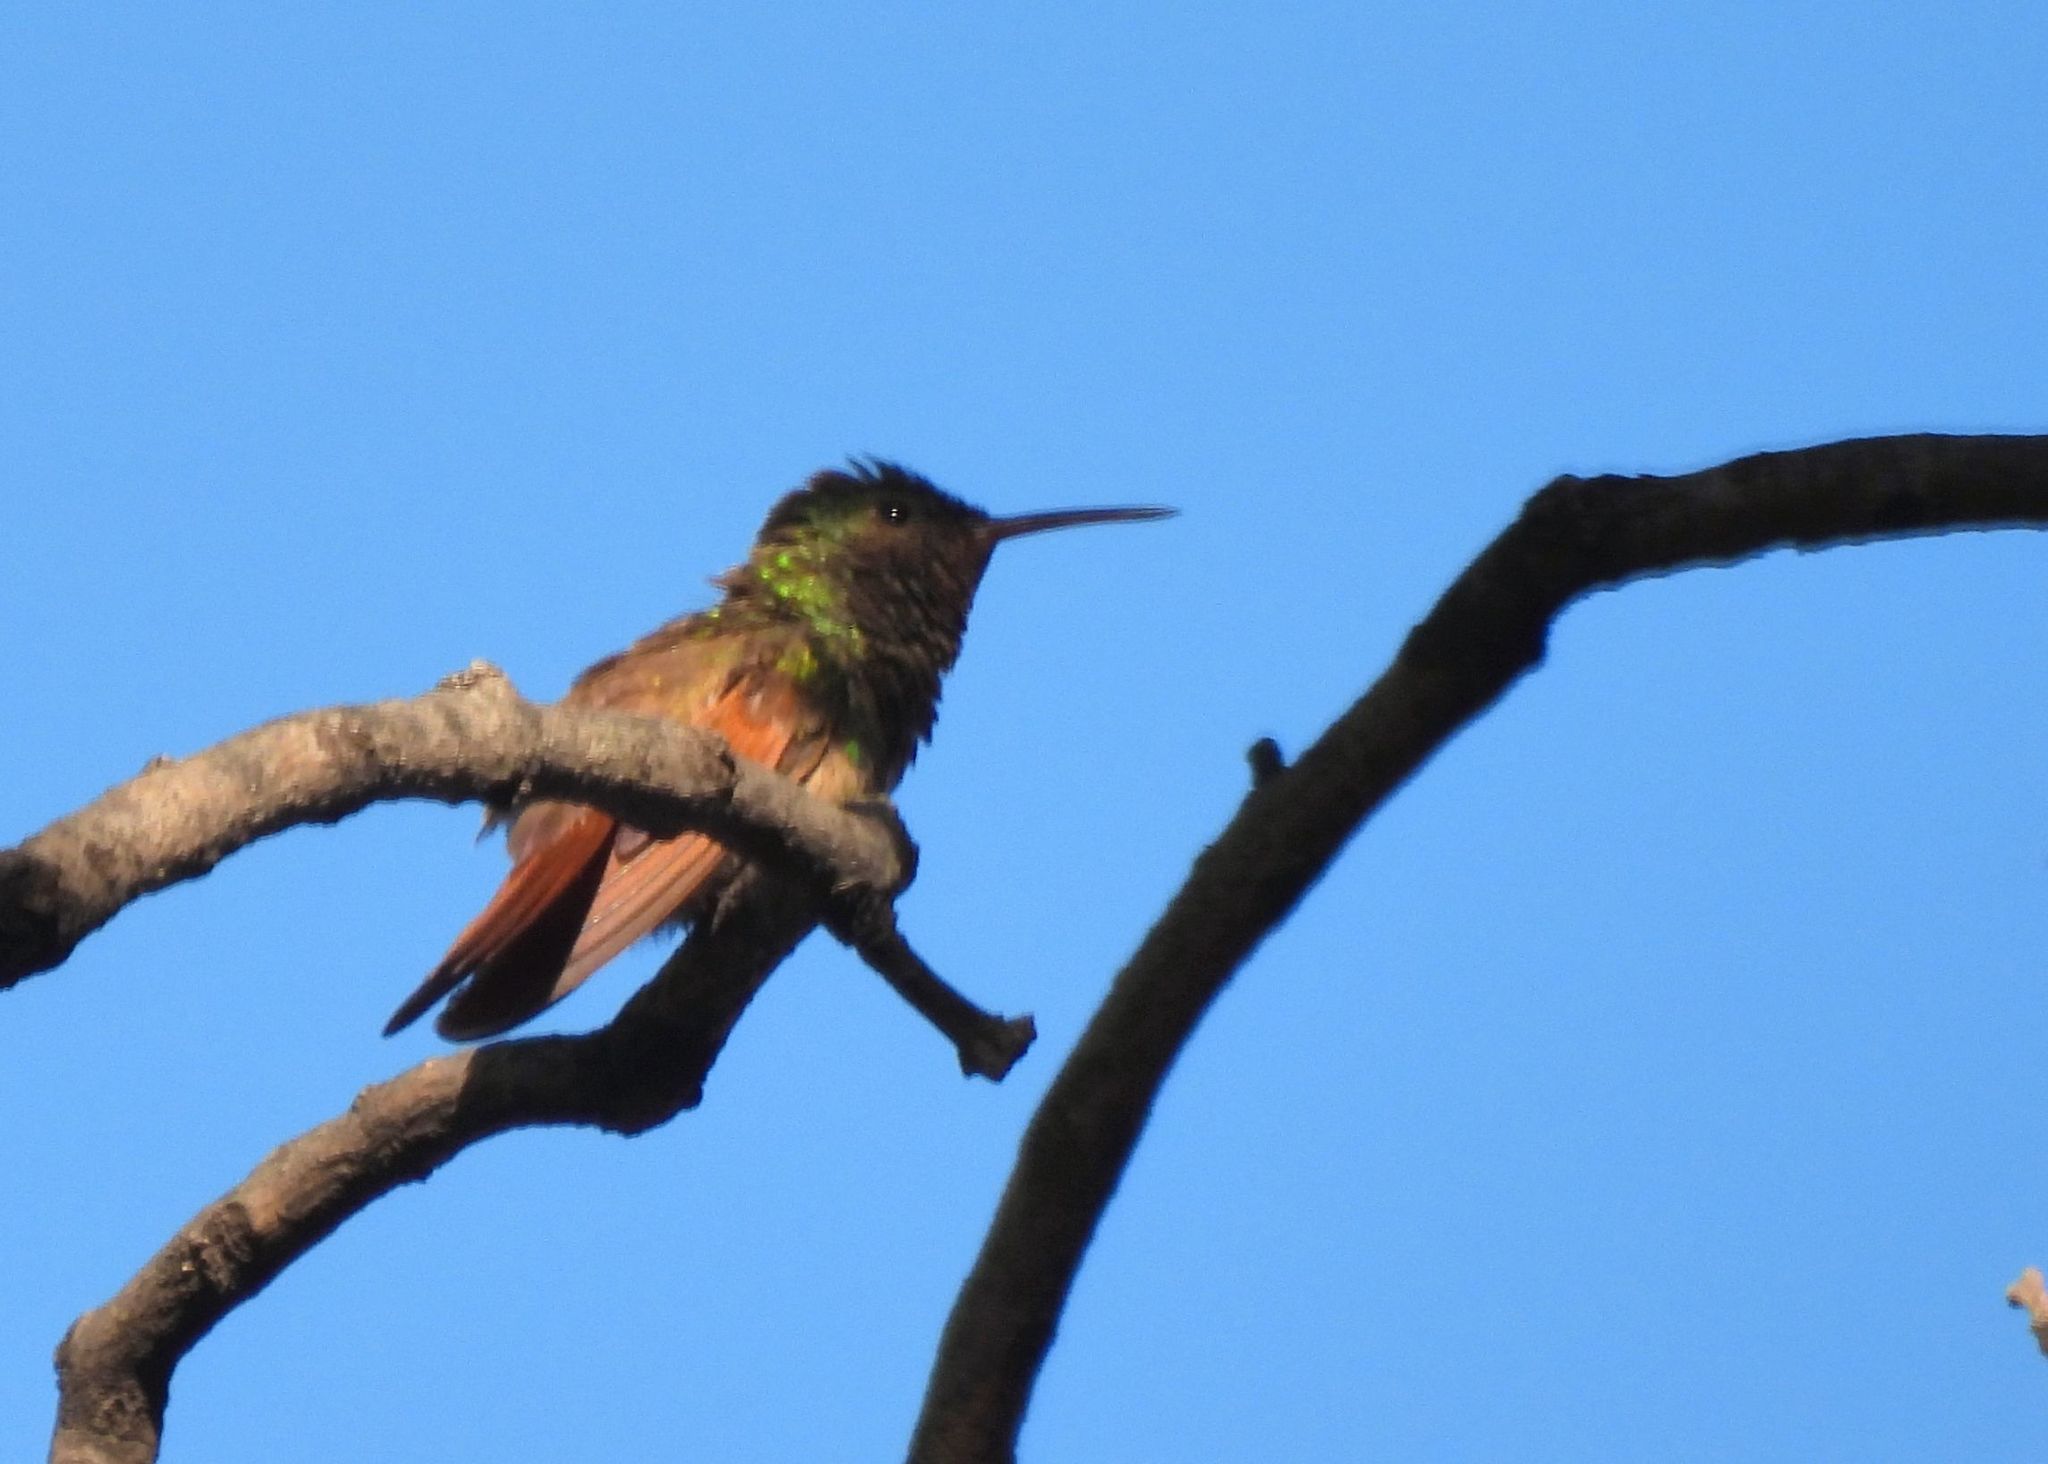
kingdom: Animalia
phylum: Chordata
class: Aves
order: Apodiformes
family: Trochilidae
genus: Saucerottia
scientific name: Saucerottia beryllina
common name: Berylline hummingbird
